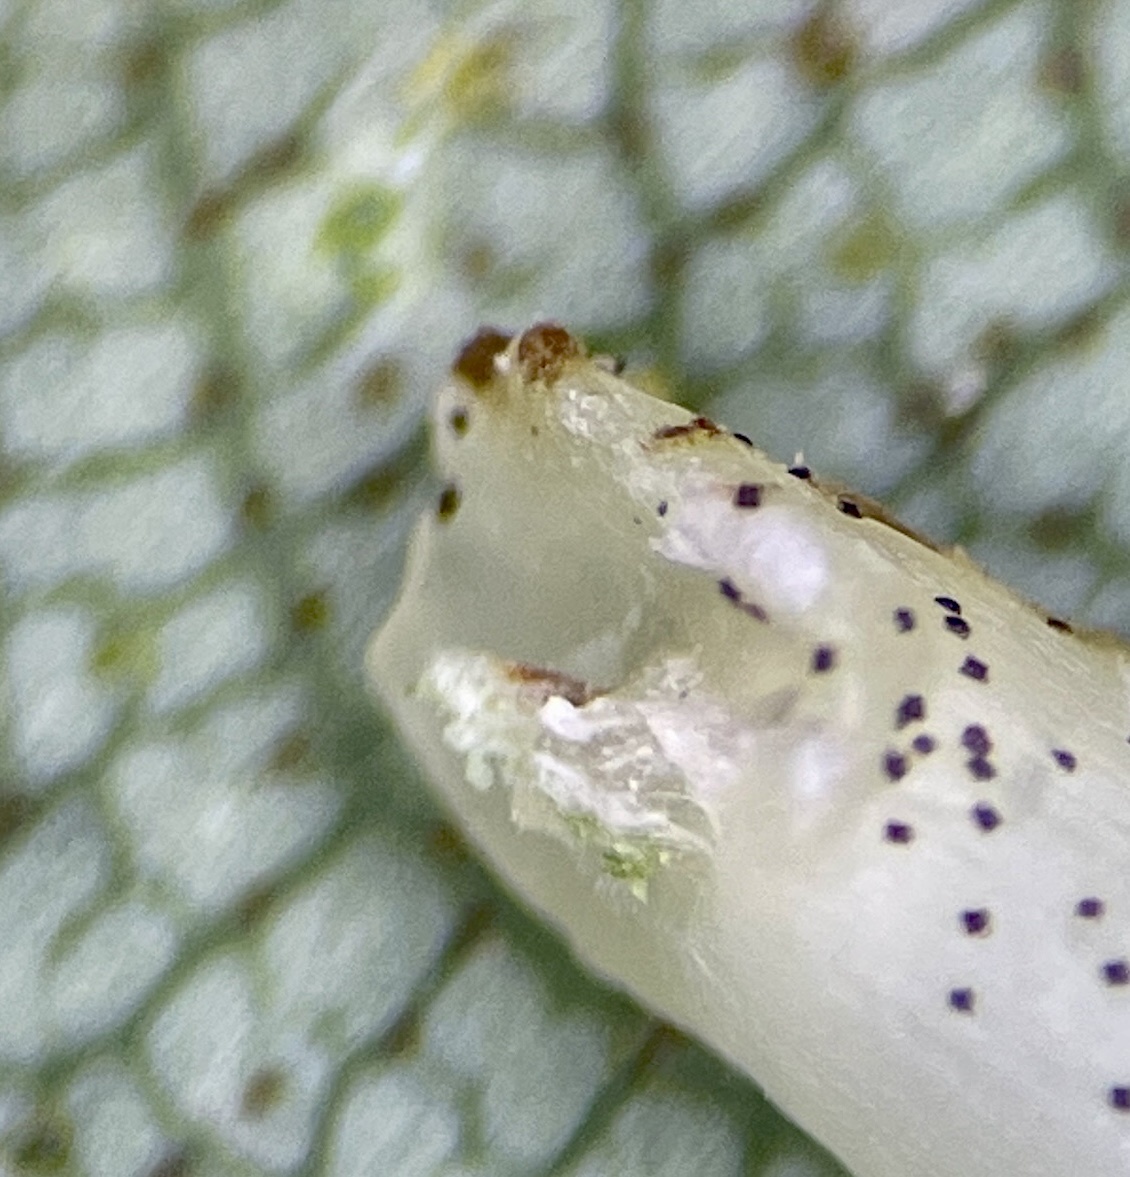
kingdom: Animalia
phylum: Arthropoda
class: Insecta
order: Diptera
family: Cecidomyiidae
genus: Caryomyia
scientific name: Caryomyia
